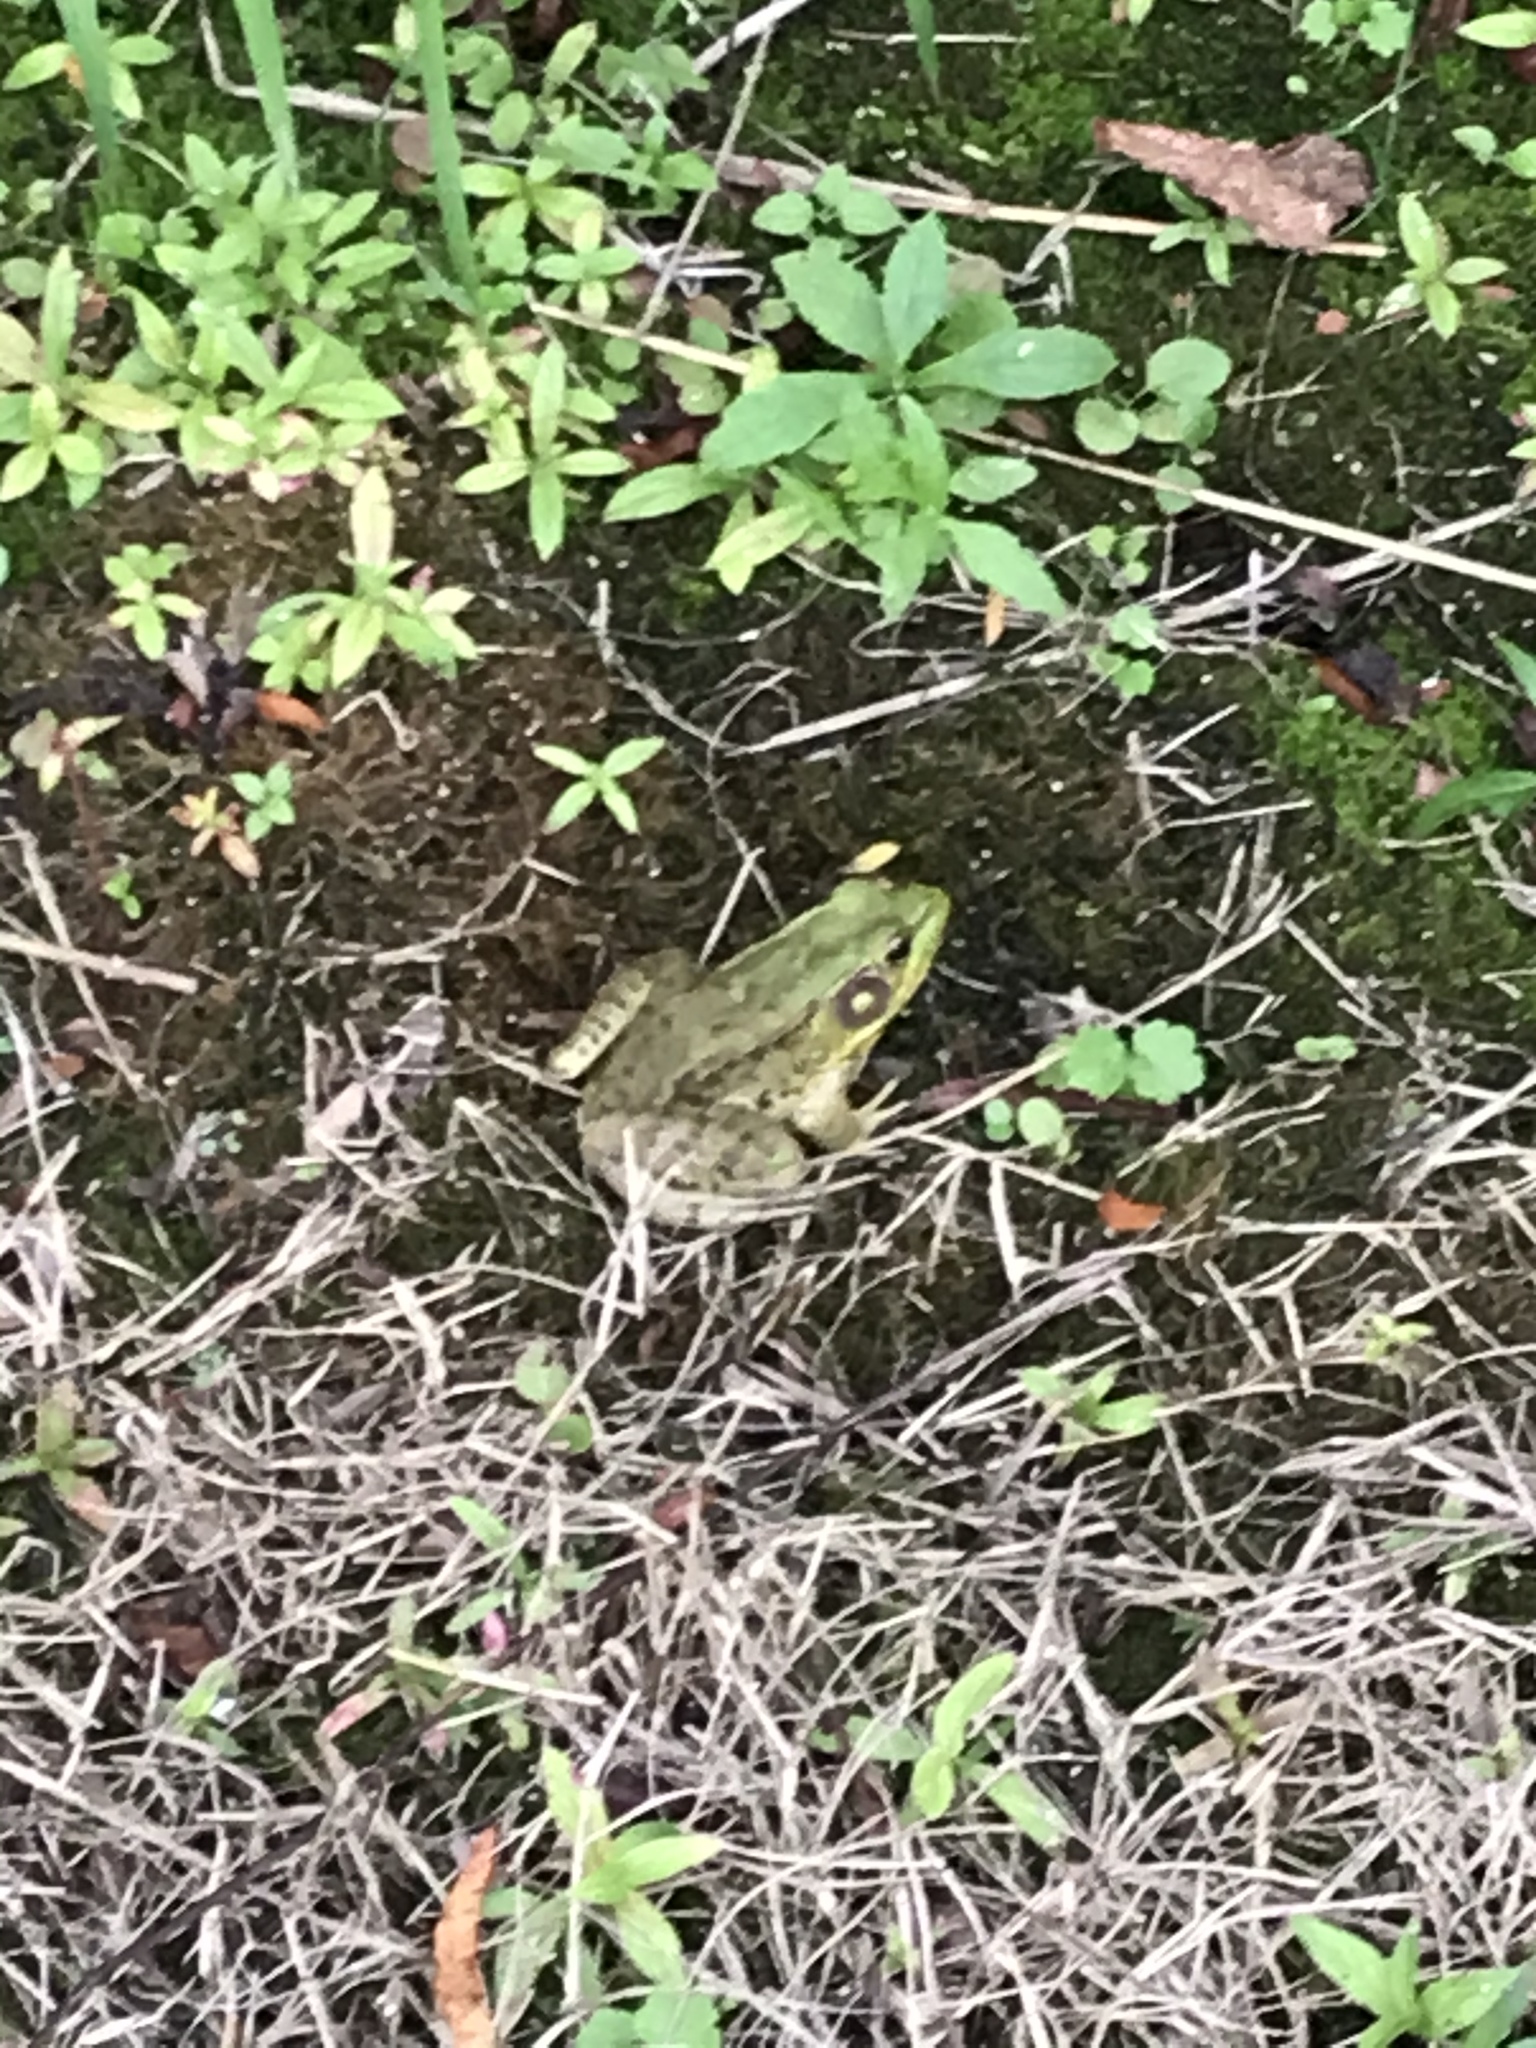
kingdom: Animalia
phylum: Chordata
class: Amphibia
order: Anura
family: Ranidae
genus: Lithobates
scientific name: Lithobates clamitans
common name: Green frog
